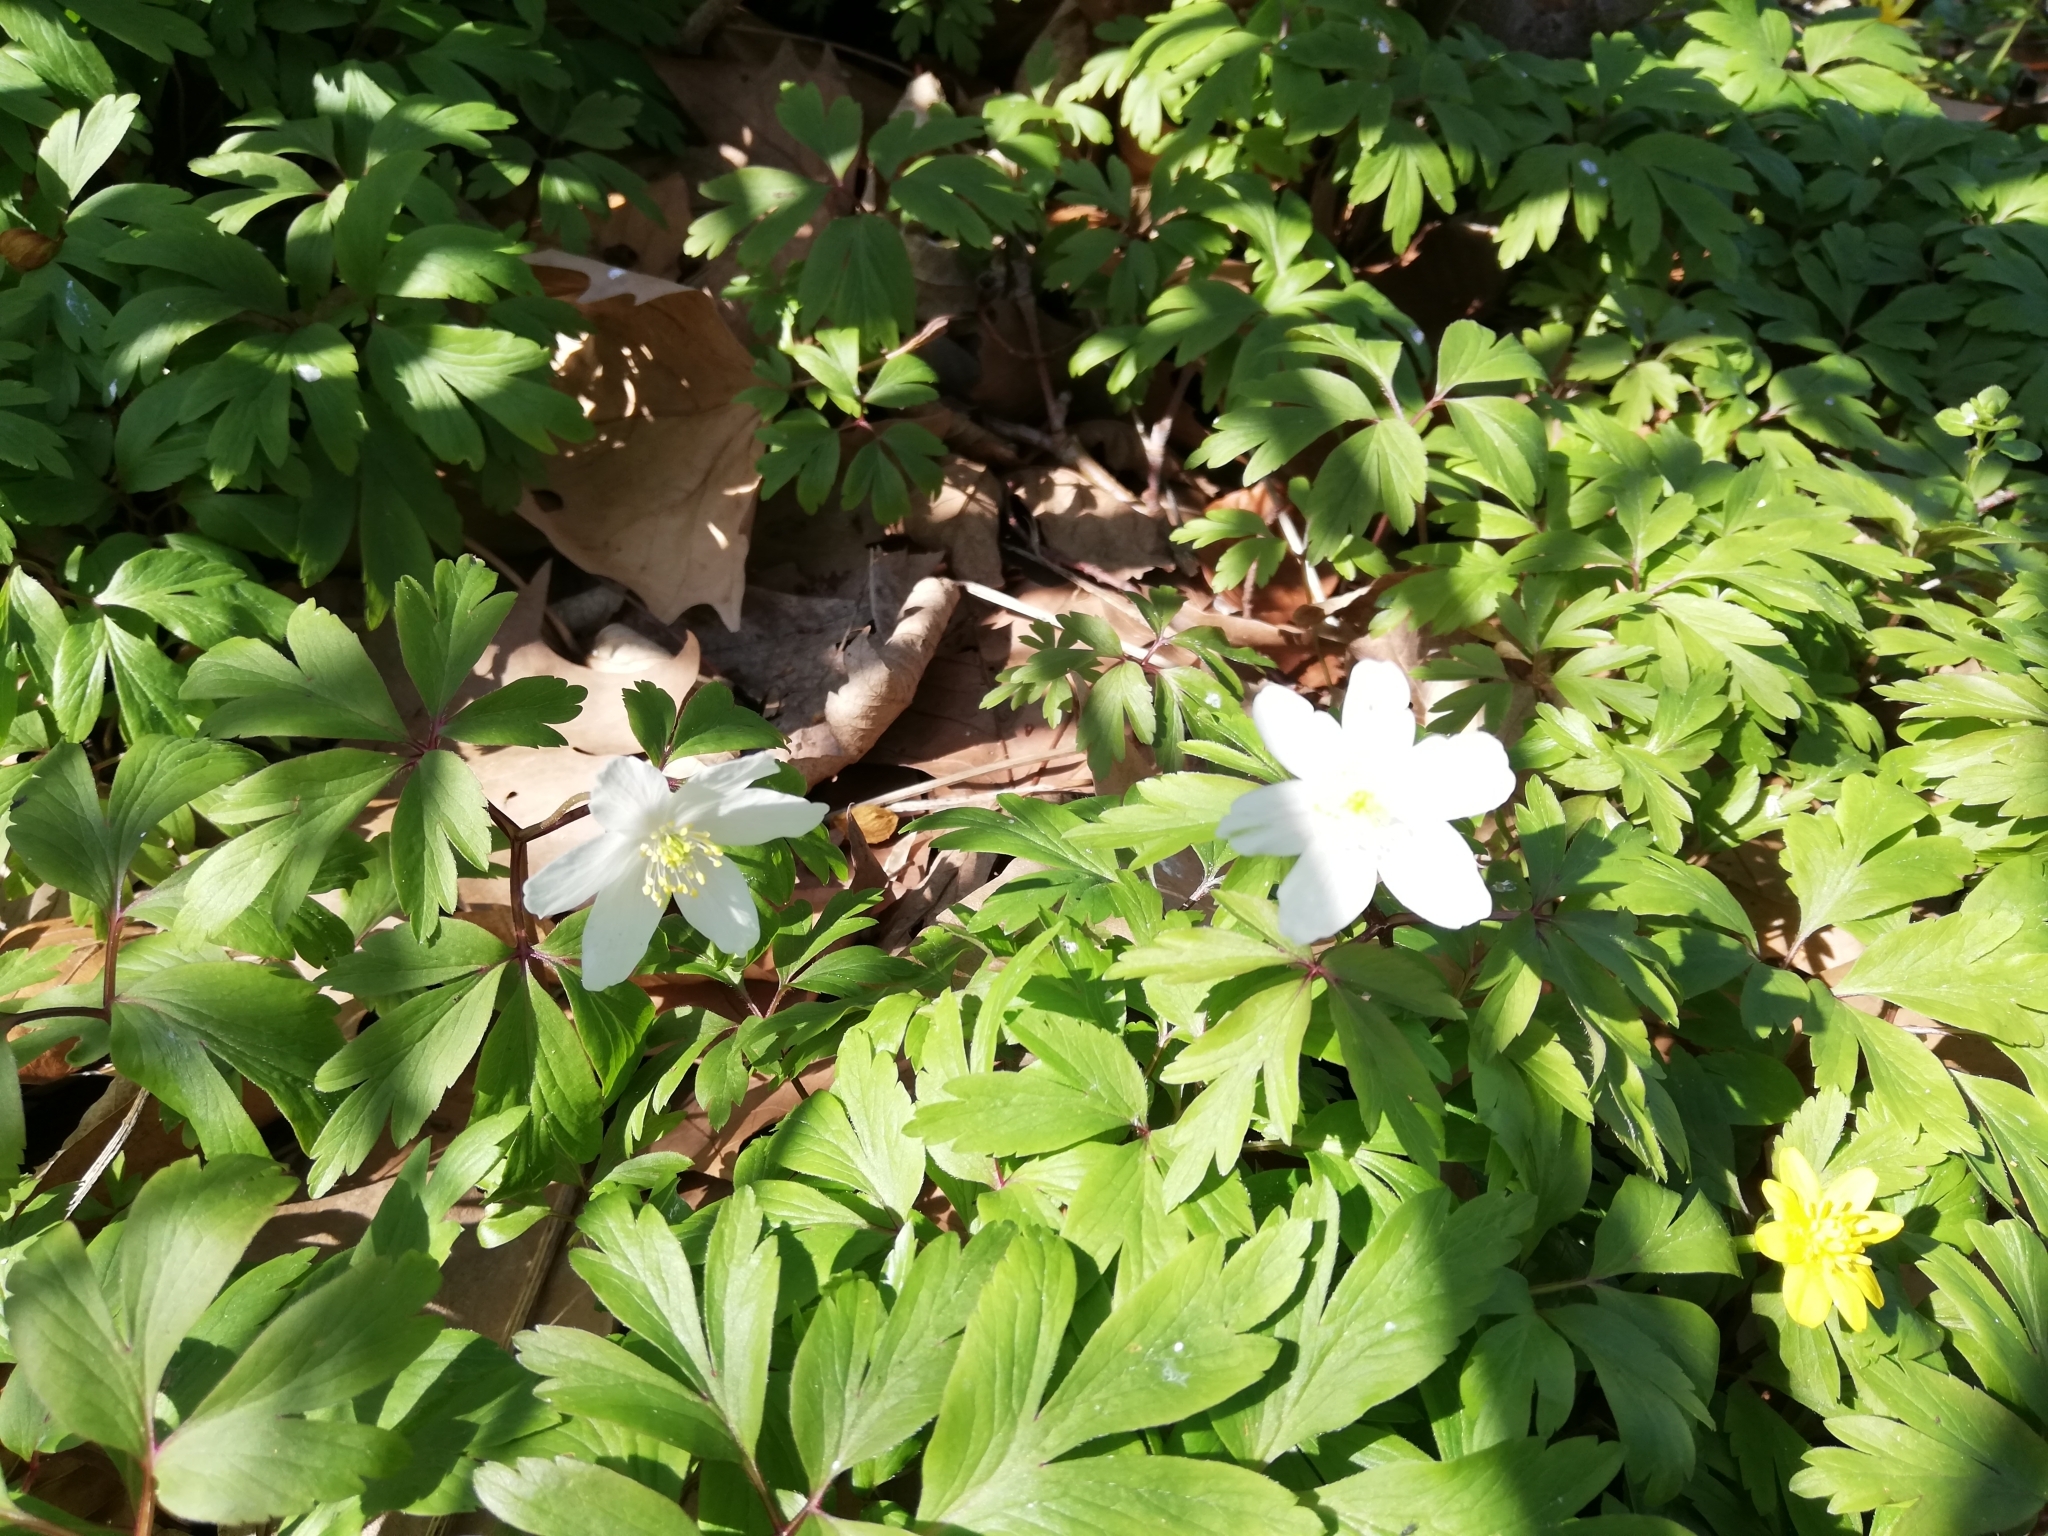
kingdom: Plantae
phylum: Tracheophyta
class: Magnoliopsida
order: Ranunculales
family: Ranunculaceae
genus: Anemone
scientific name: Anemone nemorosa
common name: Wood anemone
